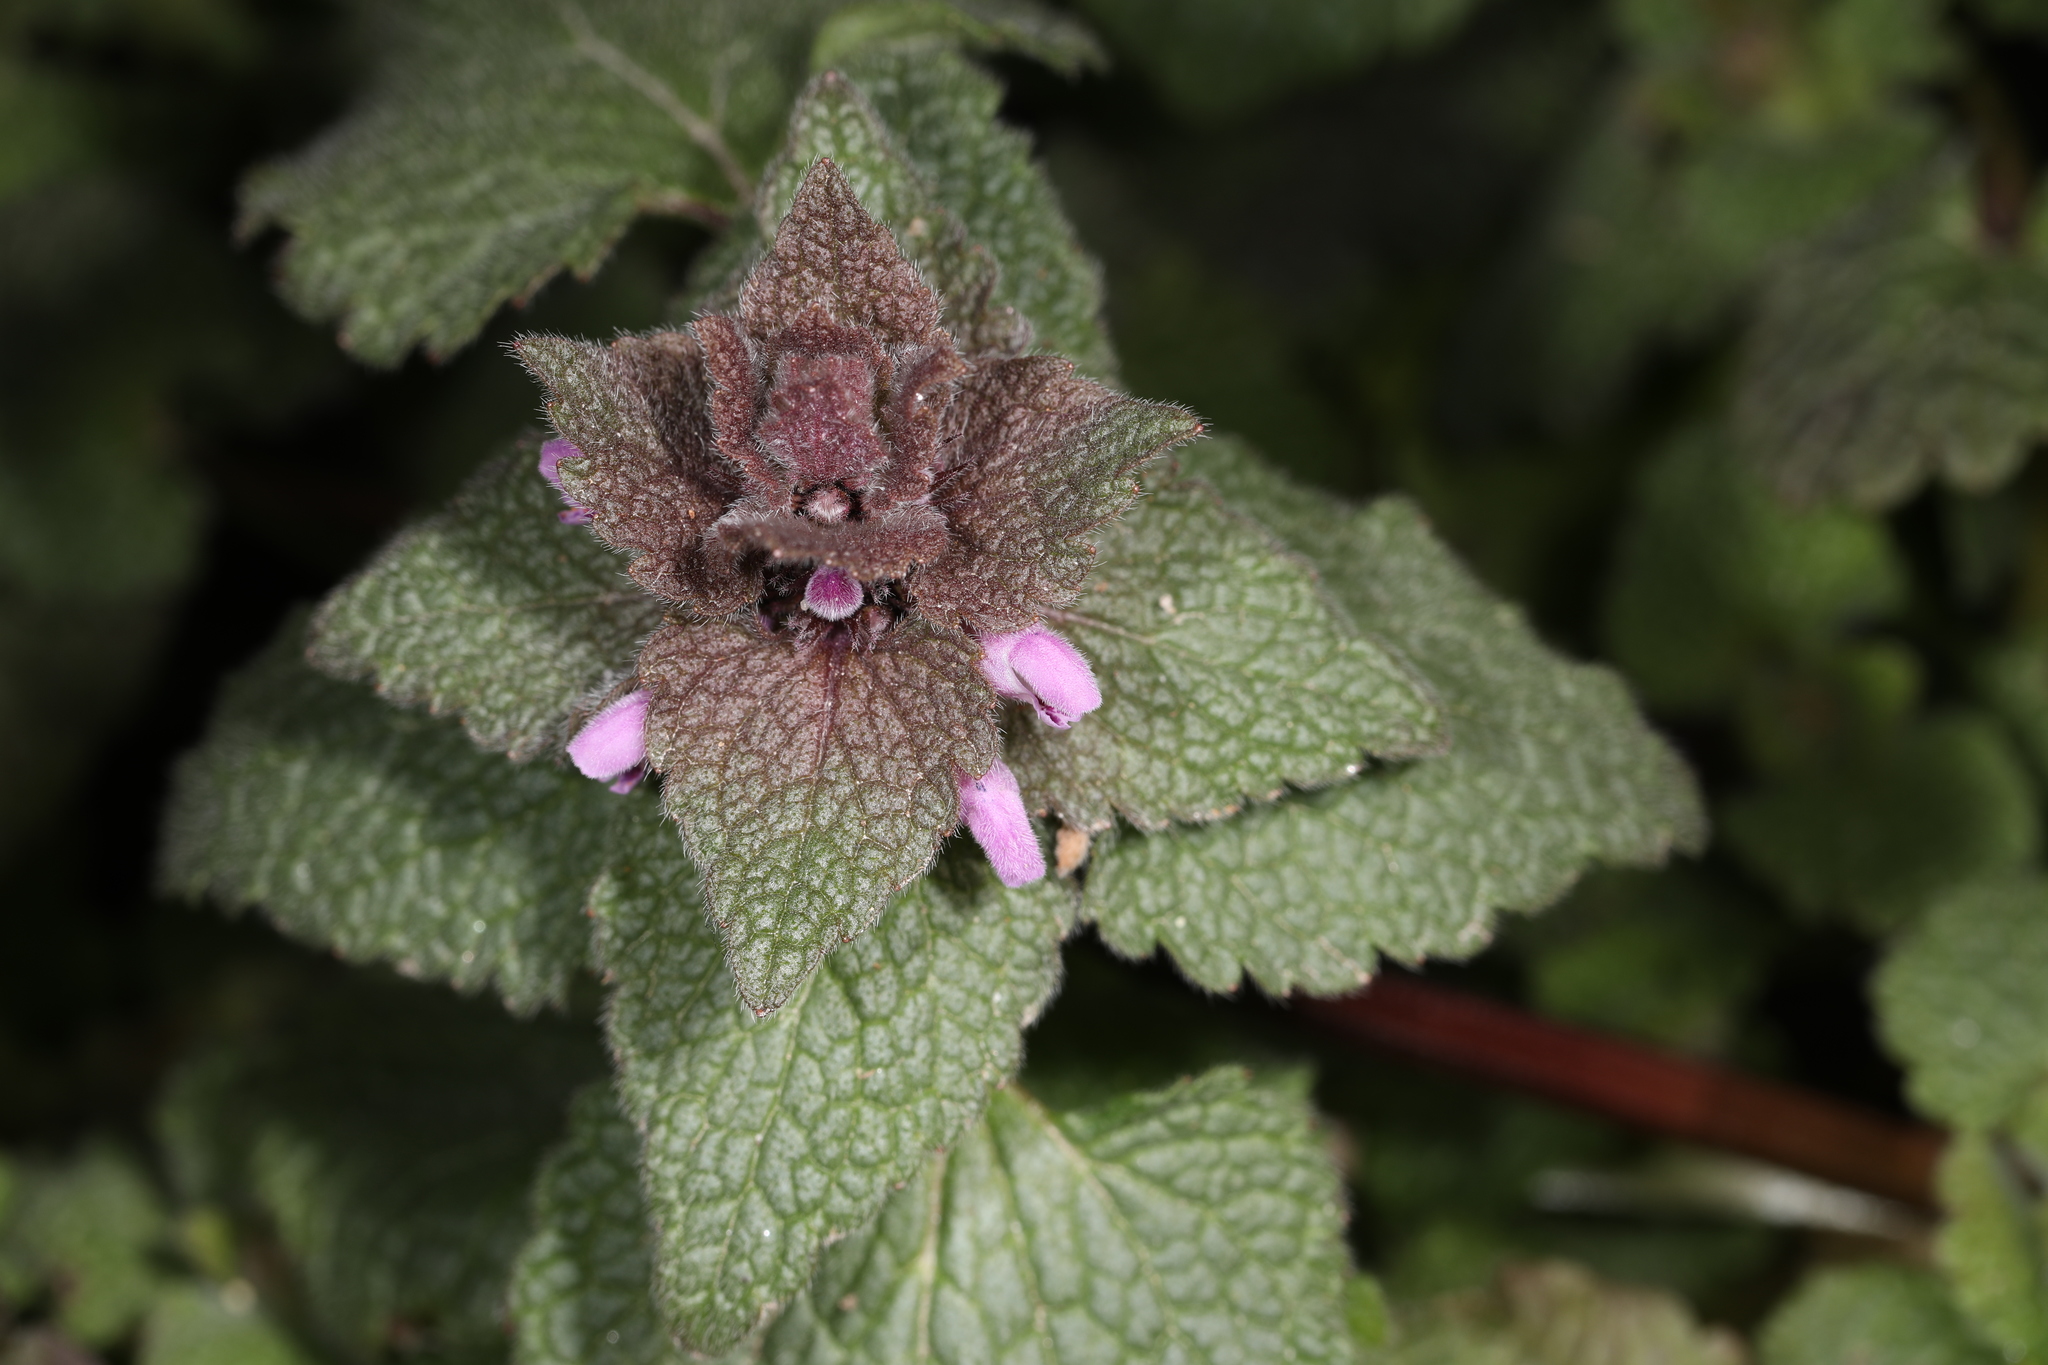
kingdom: Plantae
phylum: Tracheophyta
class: Magnoliopsida
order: Lamiales
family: Lamiaceae
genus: Lamium
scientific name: Lamium purpureum
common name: Red dead-nettle
